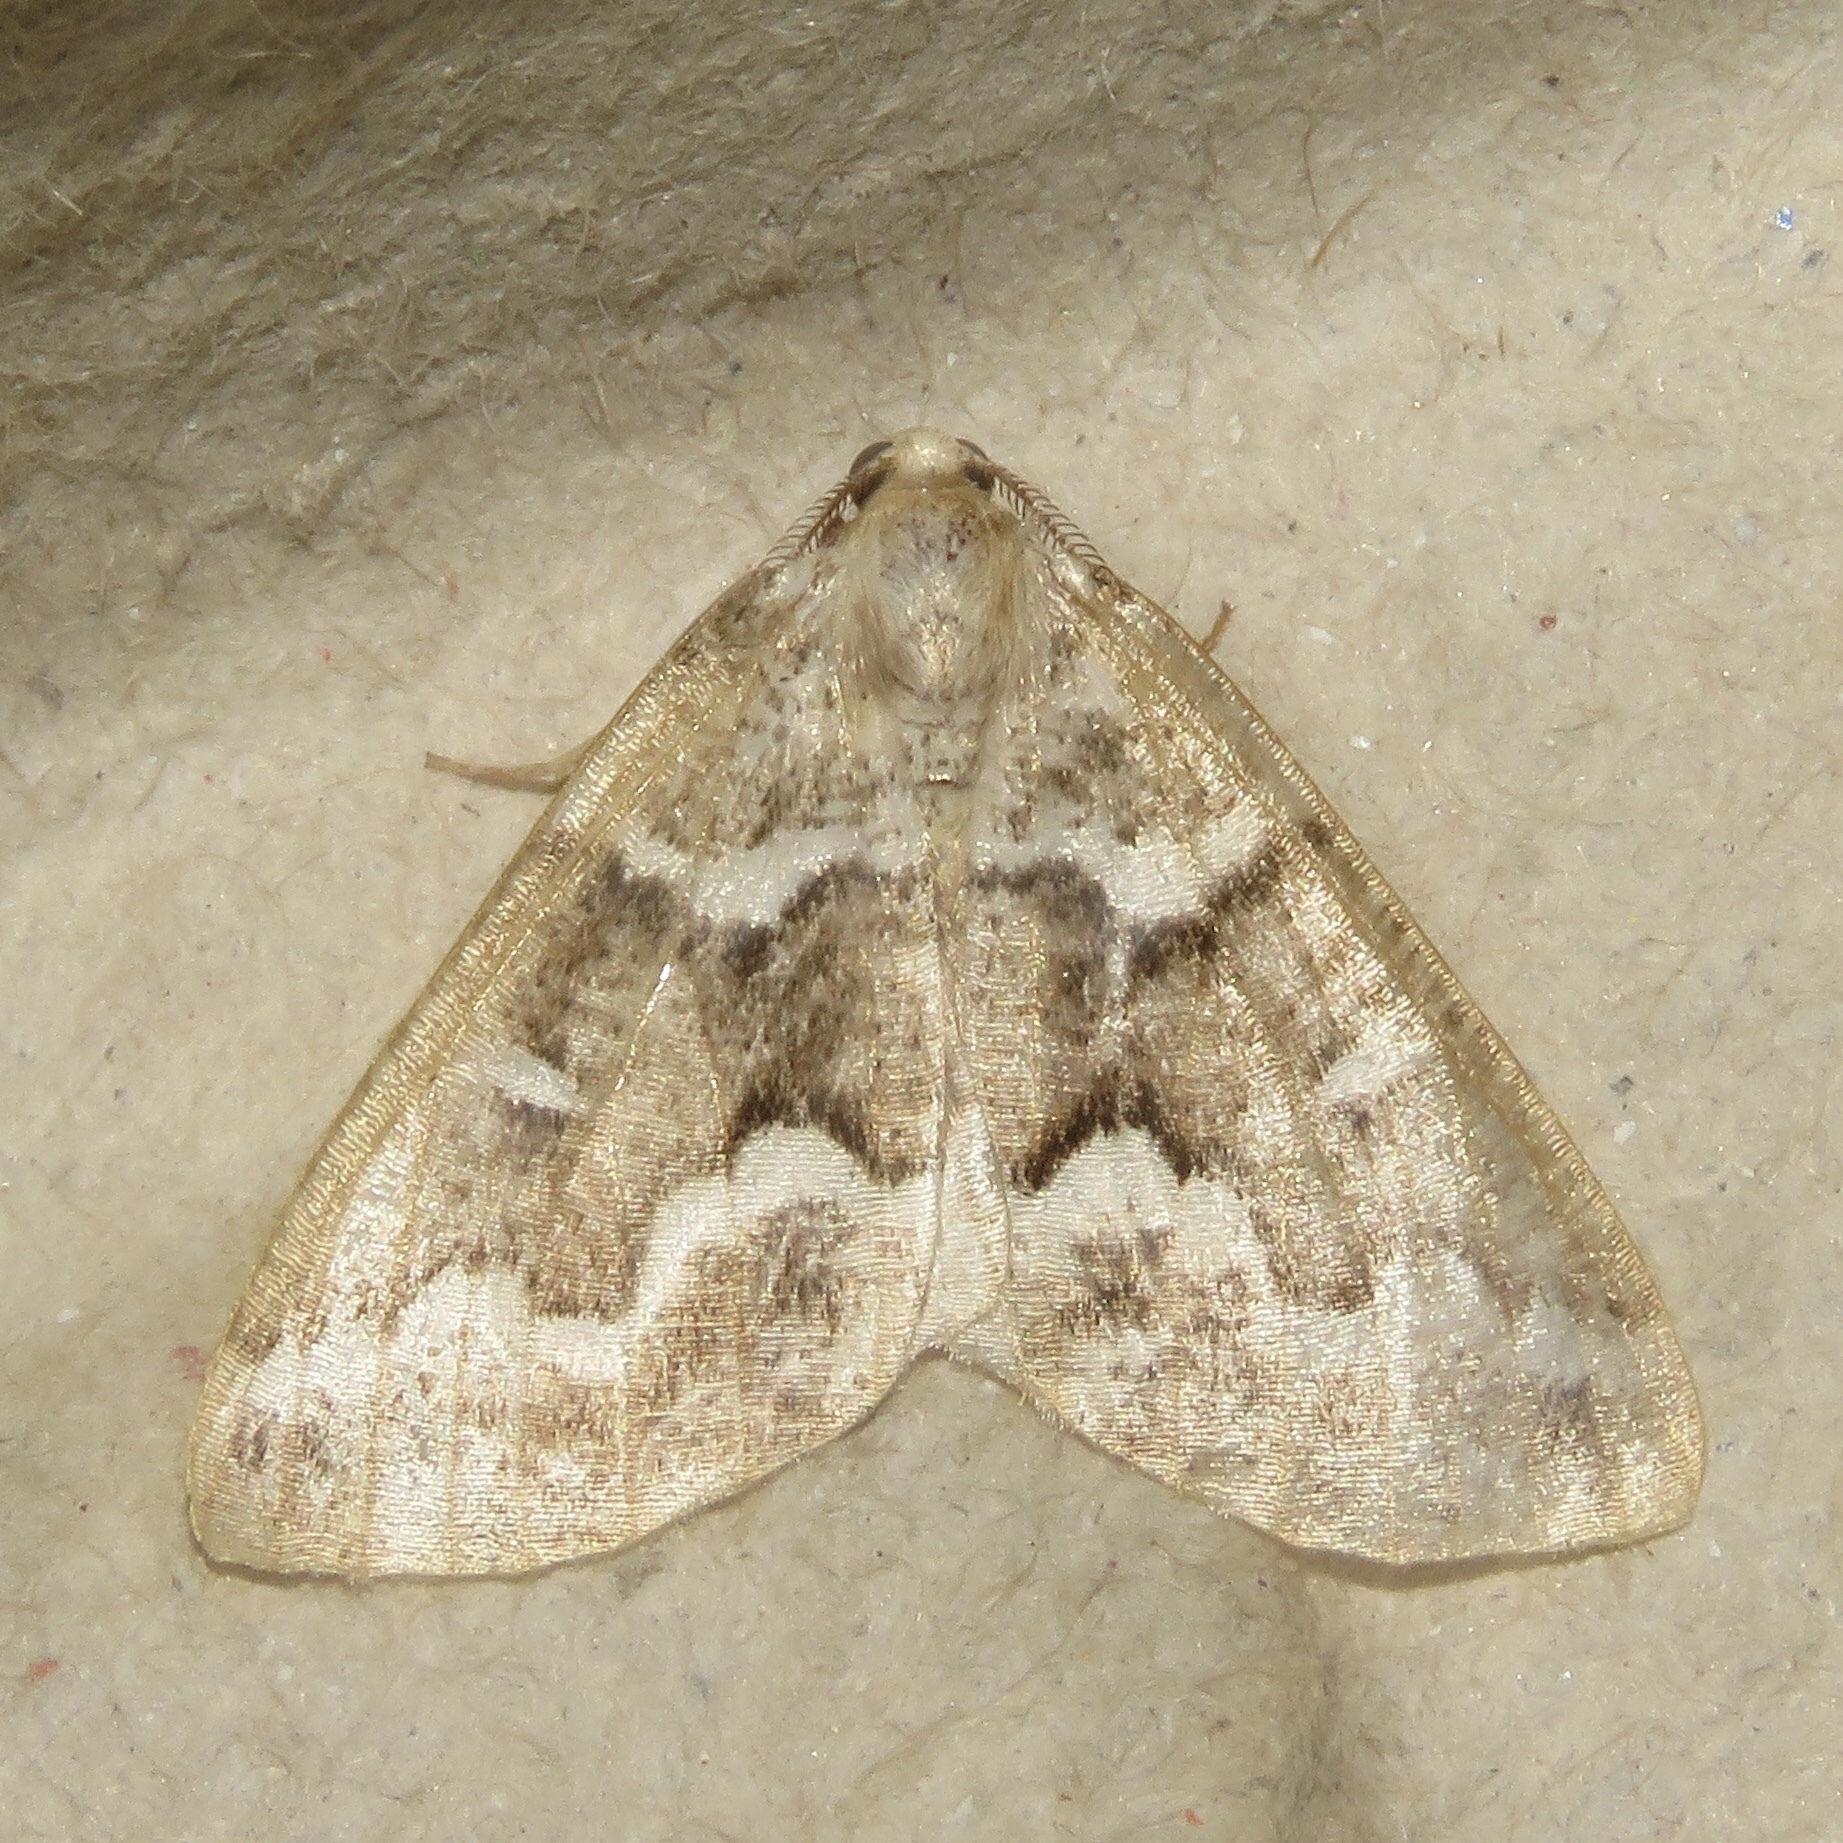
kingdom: Animalia
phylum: Arthropoda
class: Insecta
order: Lepidoptera
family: Geometridae
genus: Caripeta
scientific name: Caripeta divisata
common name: Gray spruce looper
